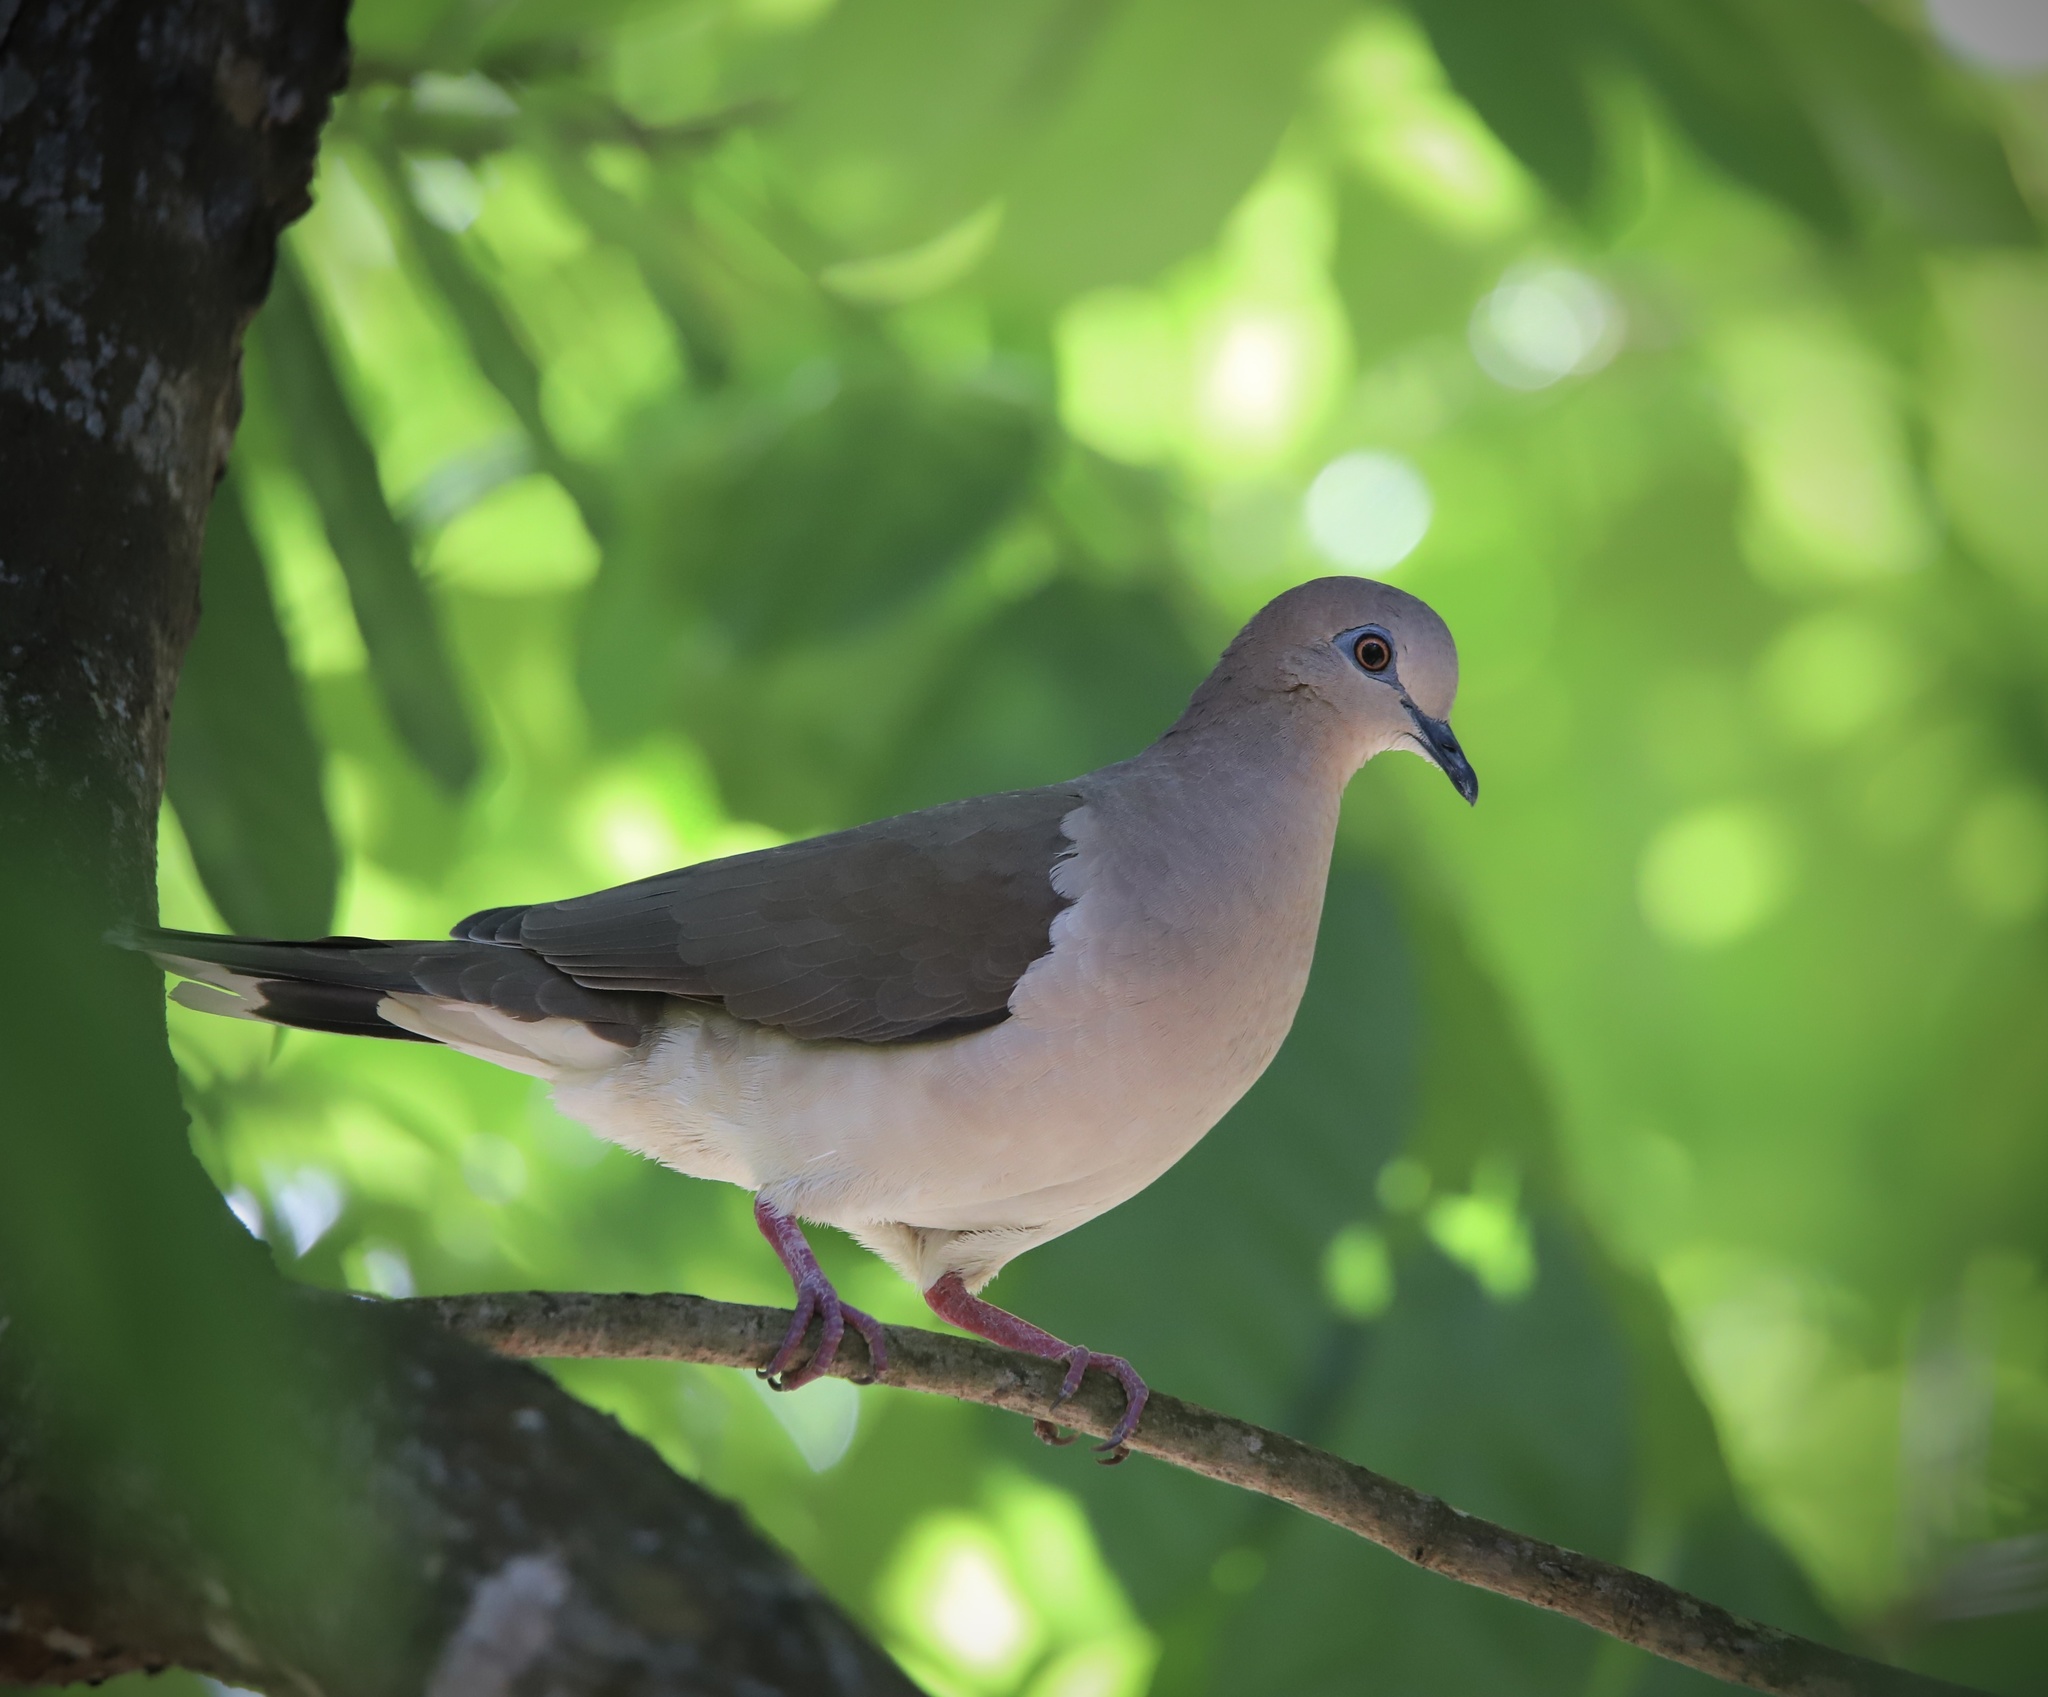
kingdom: Animalia
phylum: Chordata
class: Aves
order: Columbiformes
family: Columbidae
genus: Leptotila
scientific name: Leptotila verreauxi
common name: White-tipped dove
